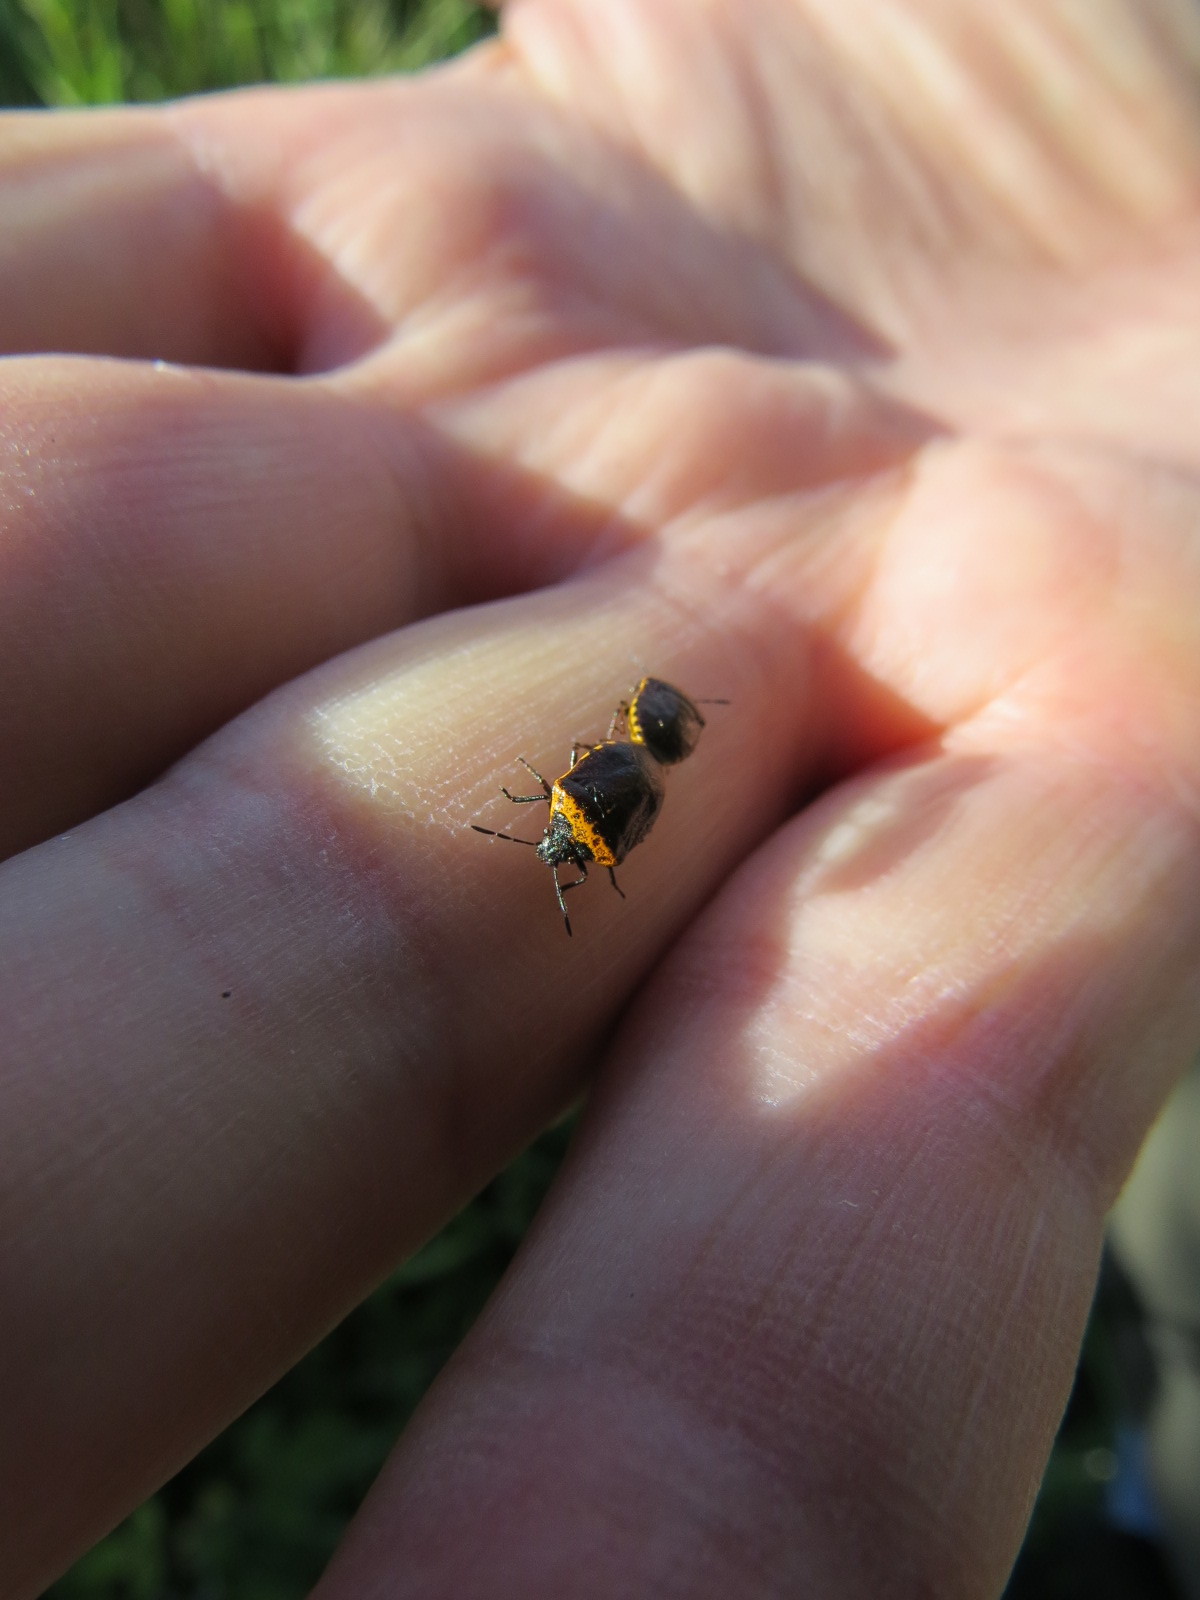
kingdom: Animalia
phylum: Arthropoda
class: Insecta
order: Hemiptera
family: Pentatomidae
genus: Cosmopepla
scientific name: Cosmopepla uhleri
